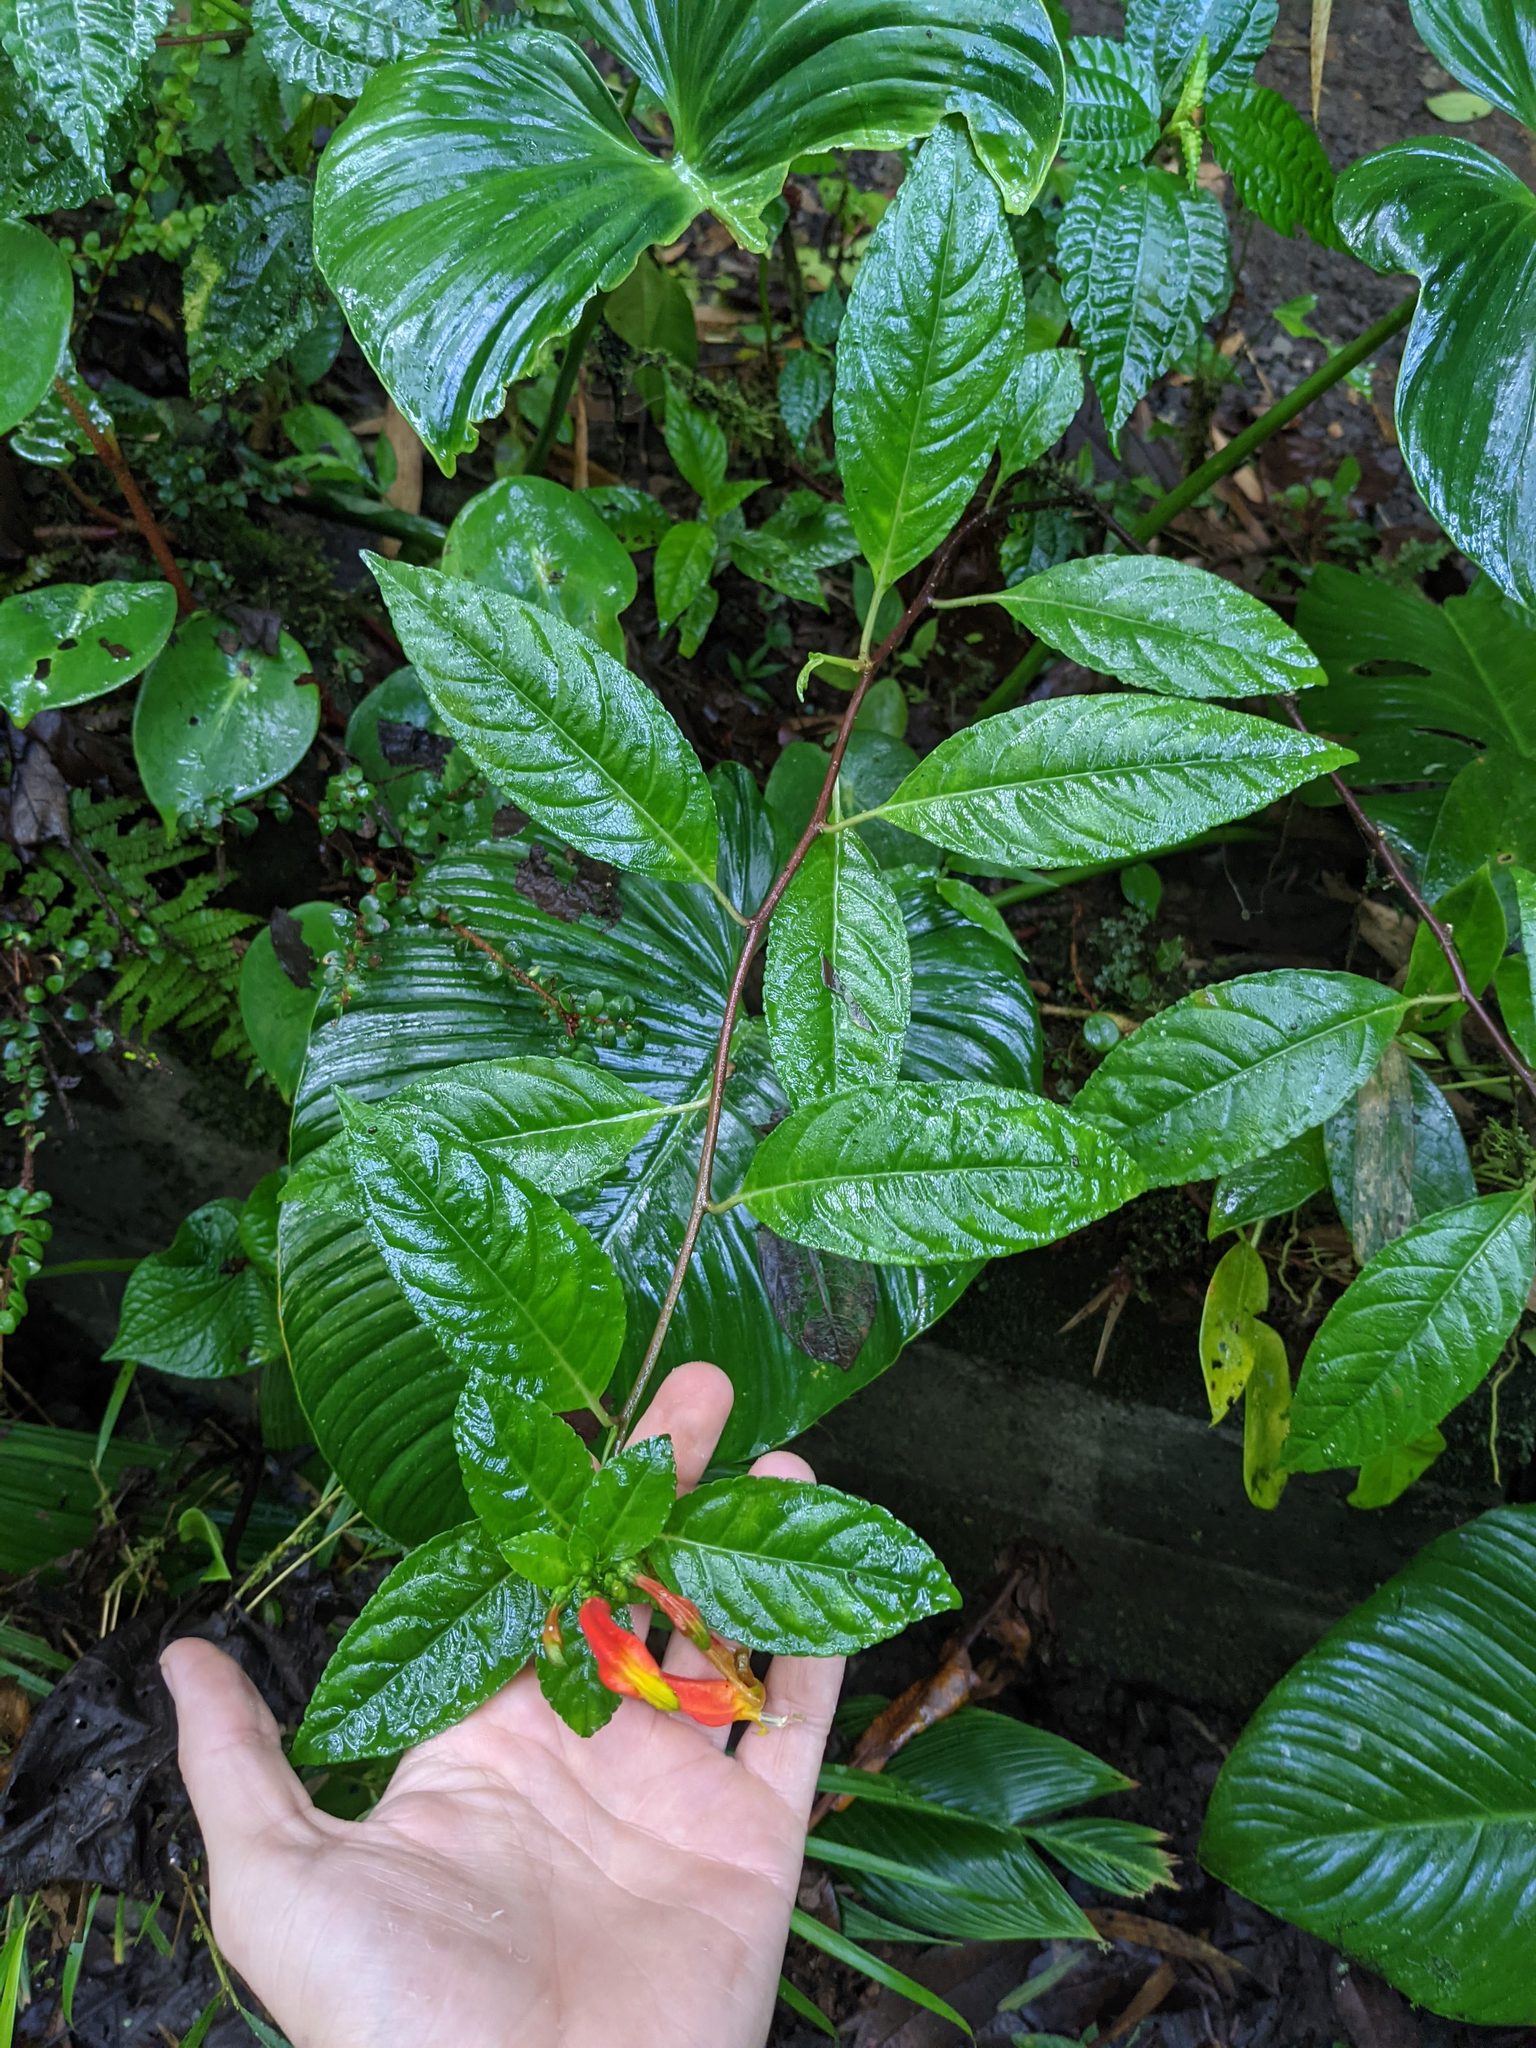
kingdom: Plantae
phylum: Tracheophyta
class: Magnoliopsida
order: Asterales
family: Campanulaceae
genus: Centropogon
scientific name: Centropogon solanifolius
